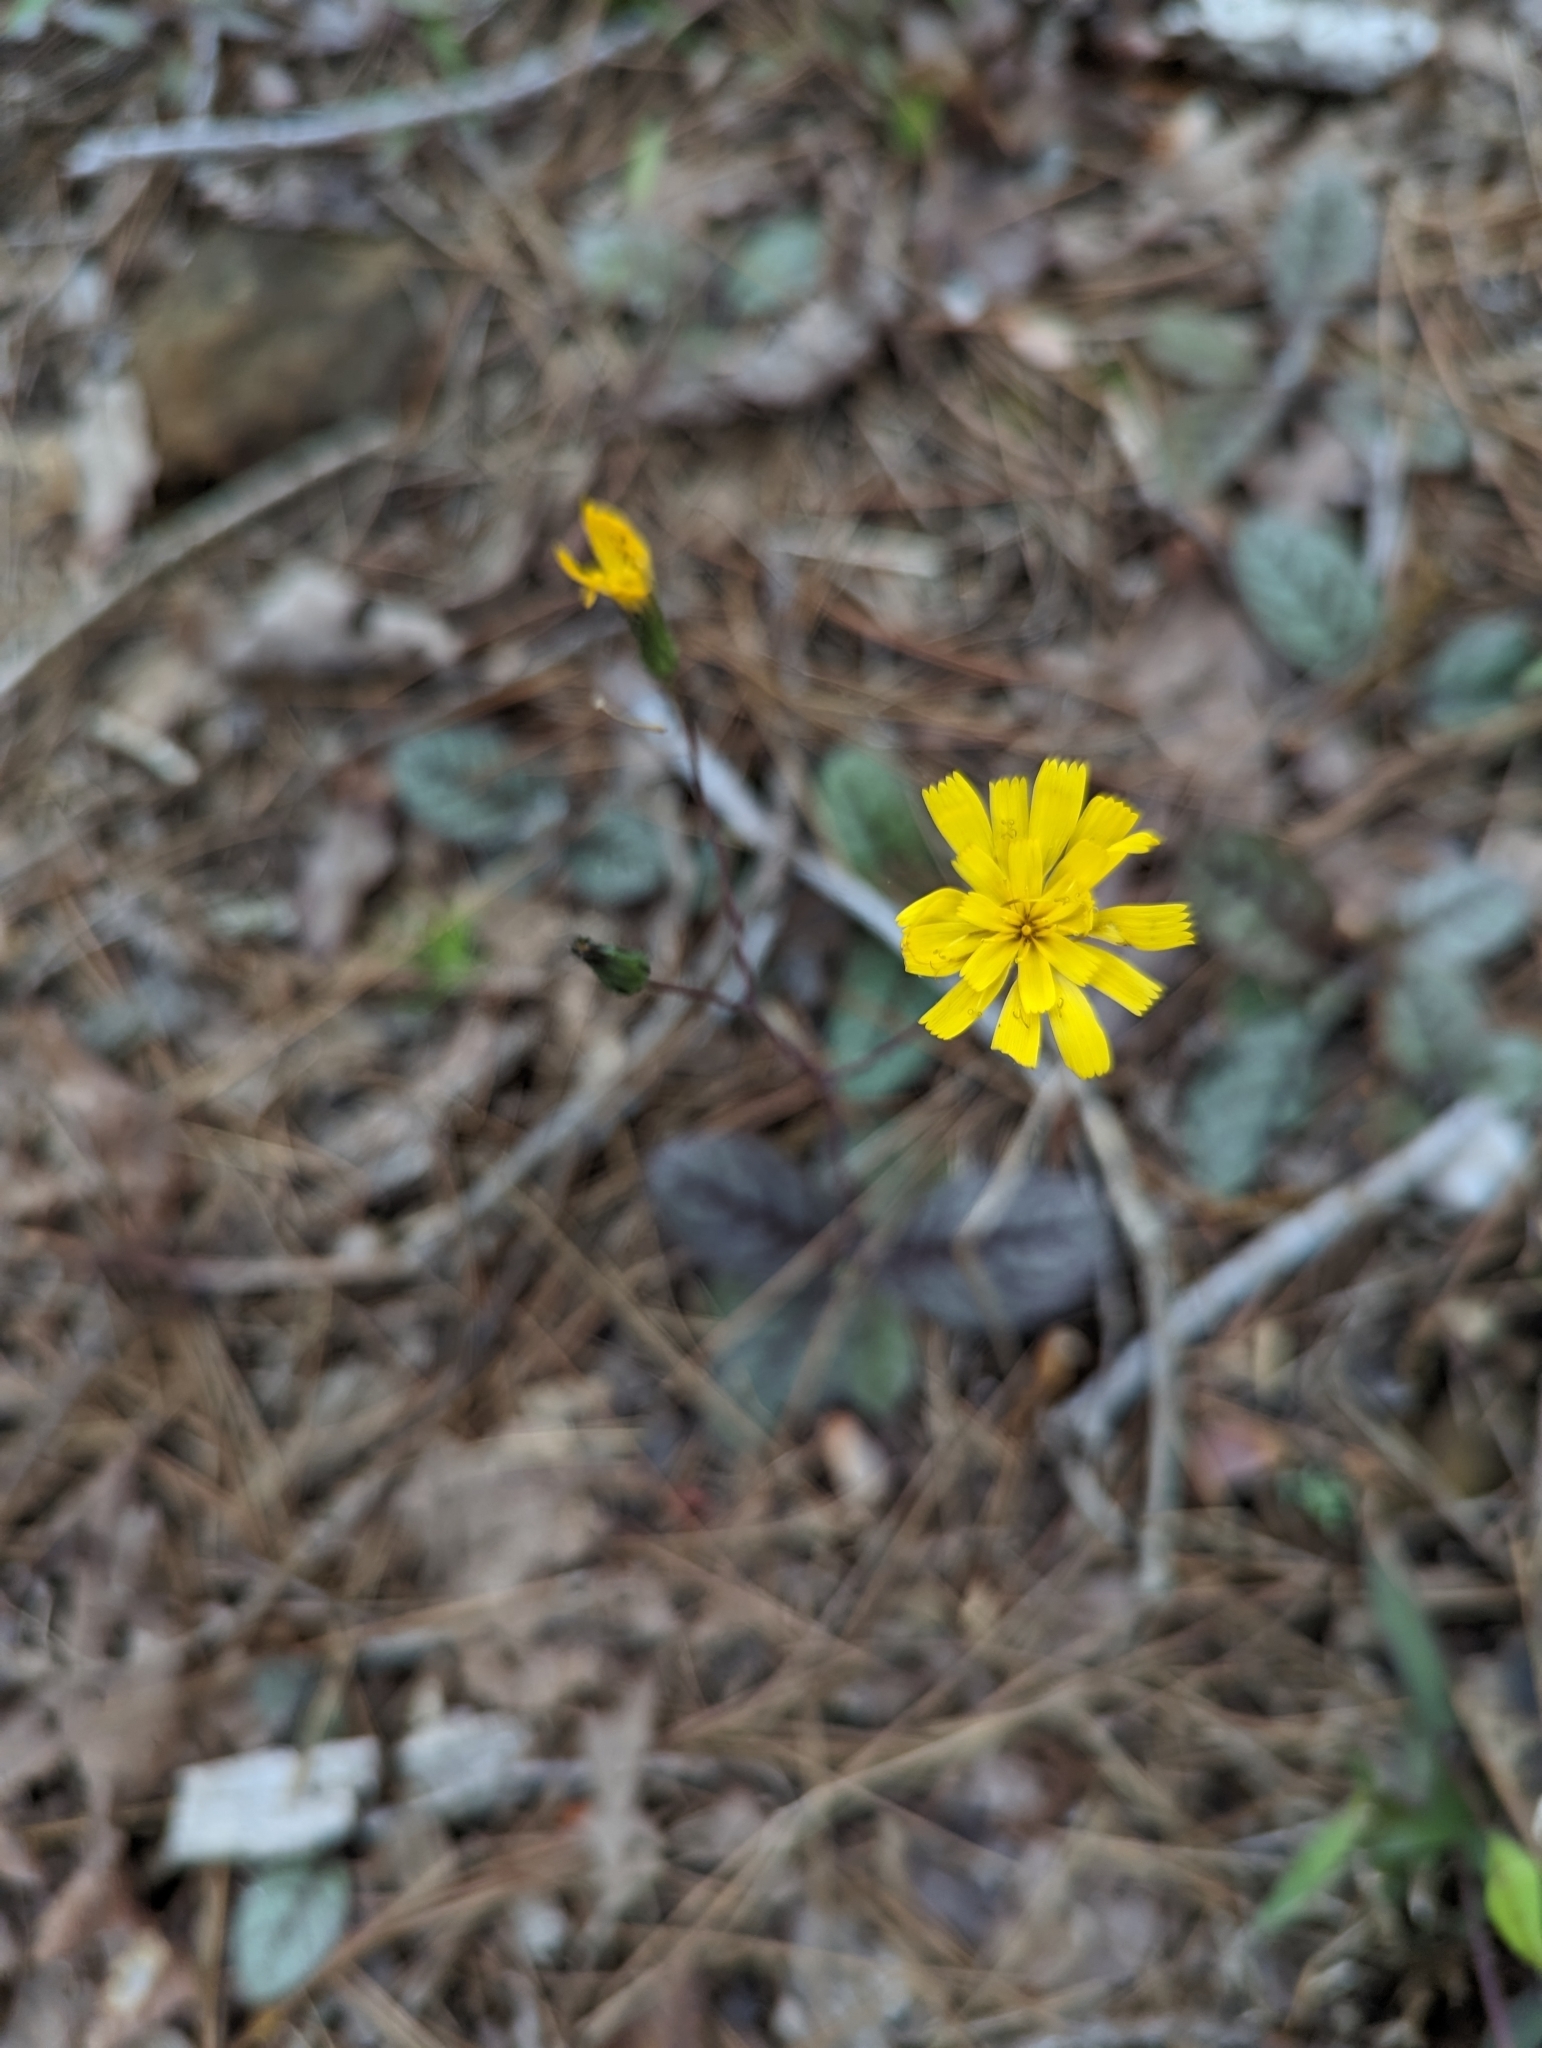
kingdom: Plantae
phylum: Tracheophyta
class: Magnoliopsida
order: Asterales
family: Asteraceae
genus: Hieracium
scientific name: Hieracium venosum
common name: Rattlesnake hawkweed
